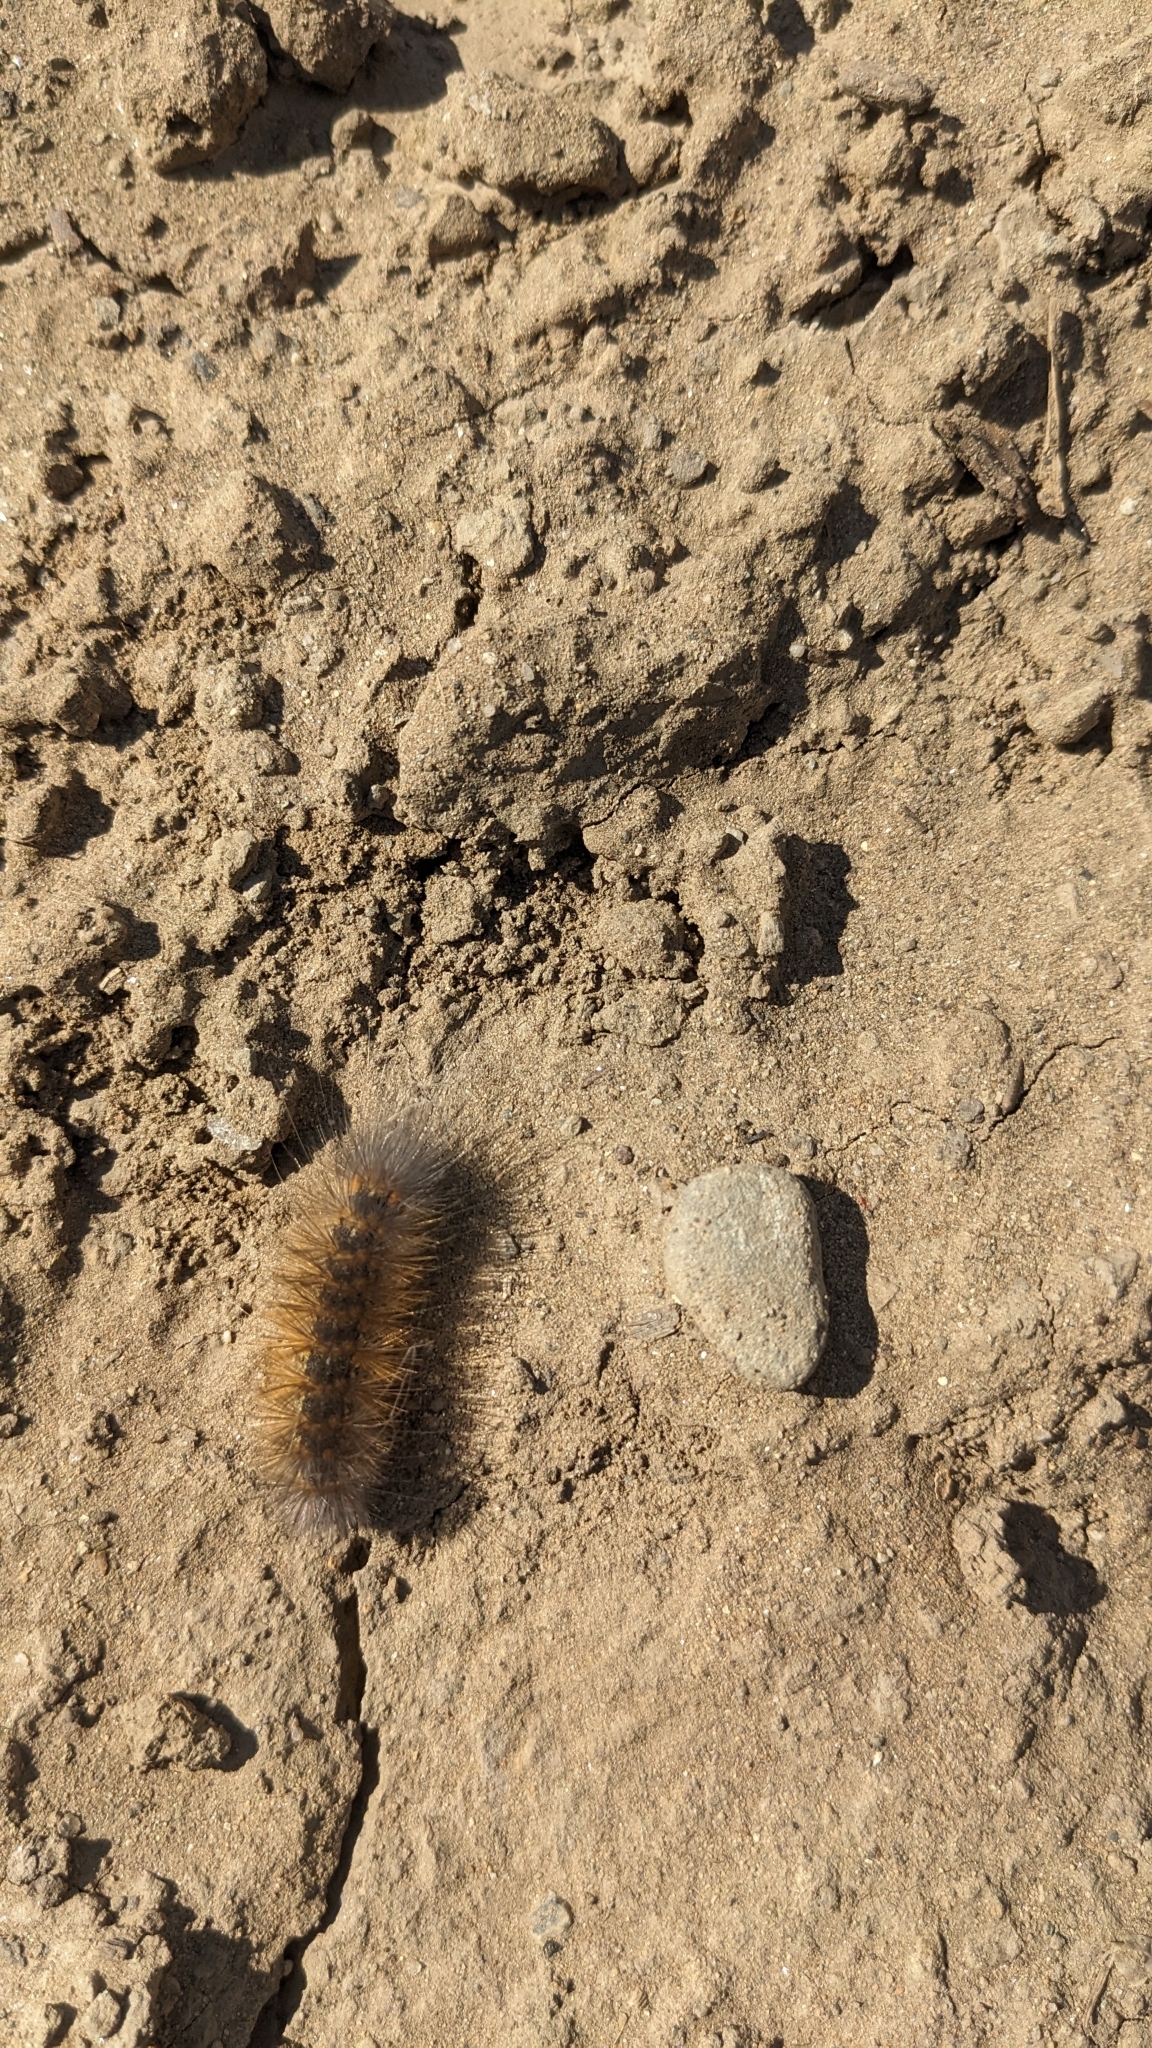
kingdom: Animalia
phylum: Arthropoda
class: Insecta
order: Lepidoptera
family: Erebidae
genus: Estigmene
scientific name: Estigmene acrea
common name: Salt marsh moth
